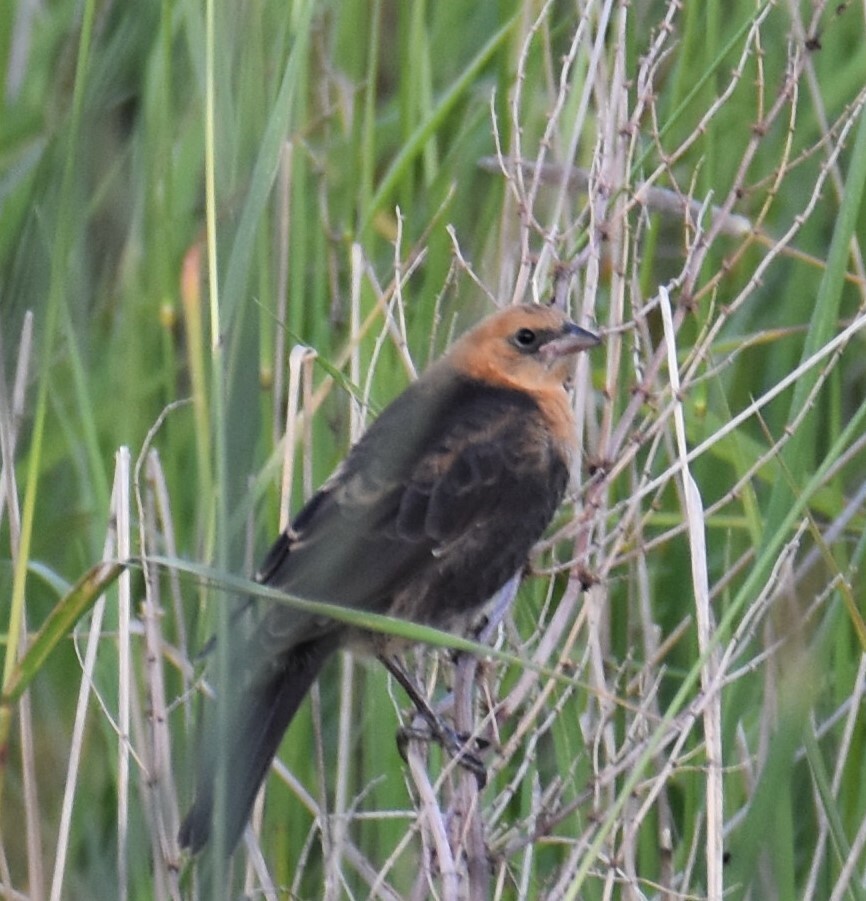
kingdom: Animalia
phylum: Chordata
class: Aves
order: Passeriformes
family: Icteridae
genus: Xanthocephalus
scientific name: Xanthocephalus xanthocephalus
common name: Yellow-headed blackbird
